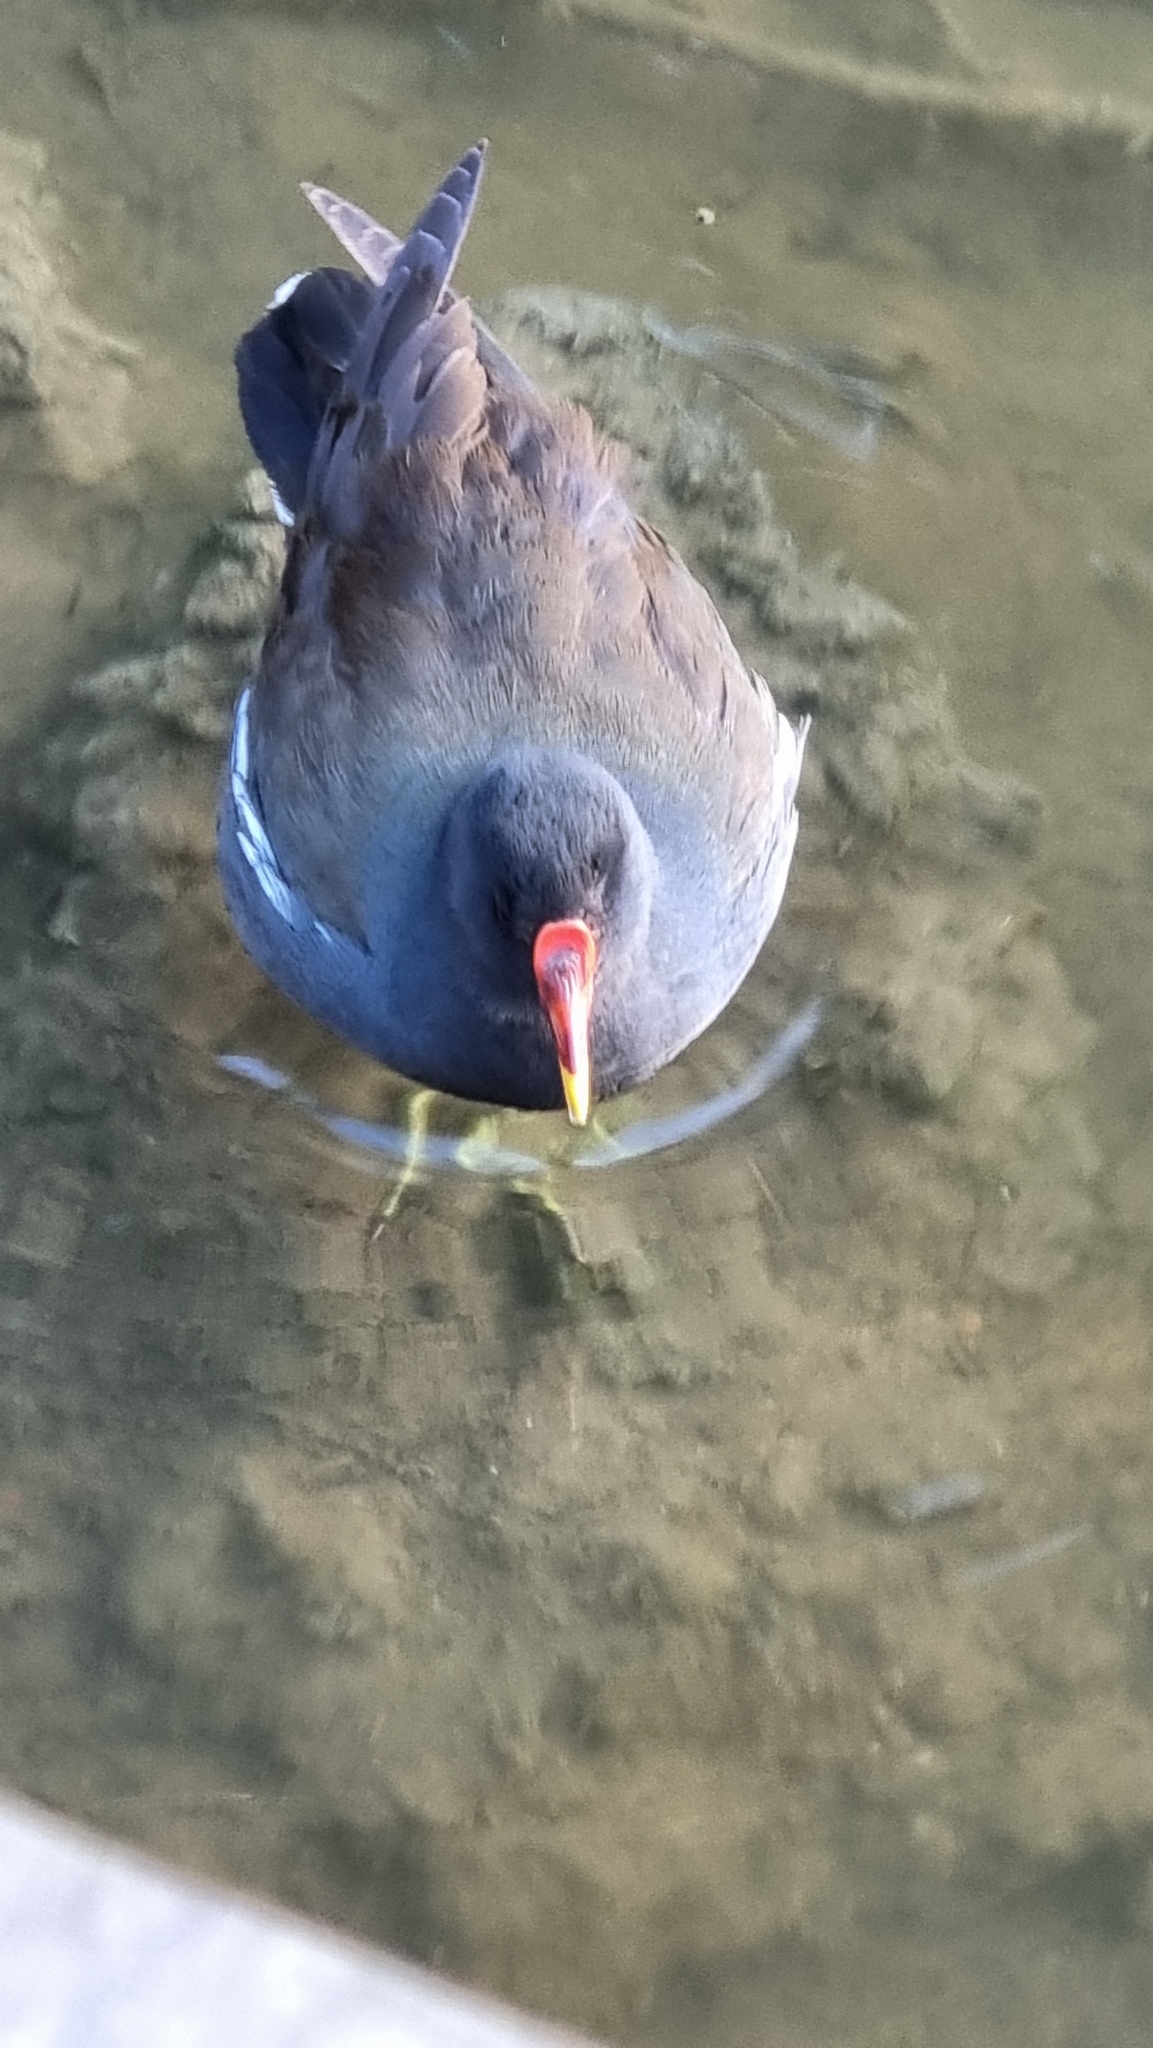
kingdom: Animalia
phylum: Chordata
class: Aves
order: Gruiformes
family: Rallidae
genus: Gallinula
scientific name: Gallinula chloropus
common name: Common moorhen
